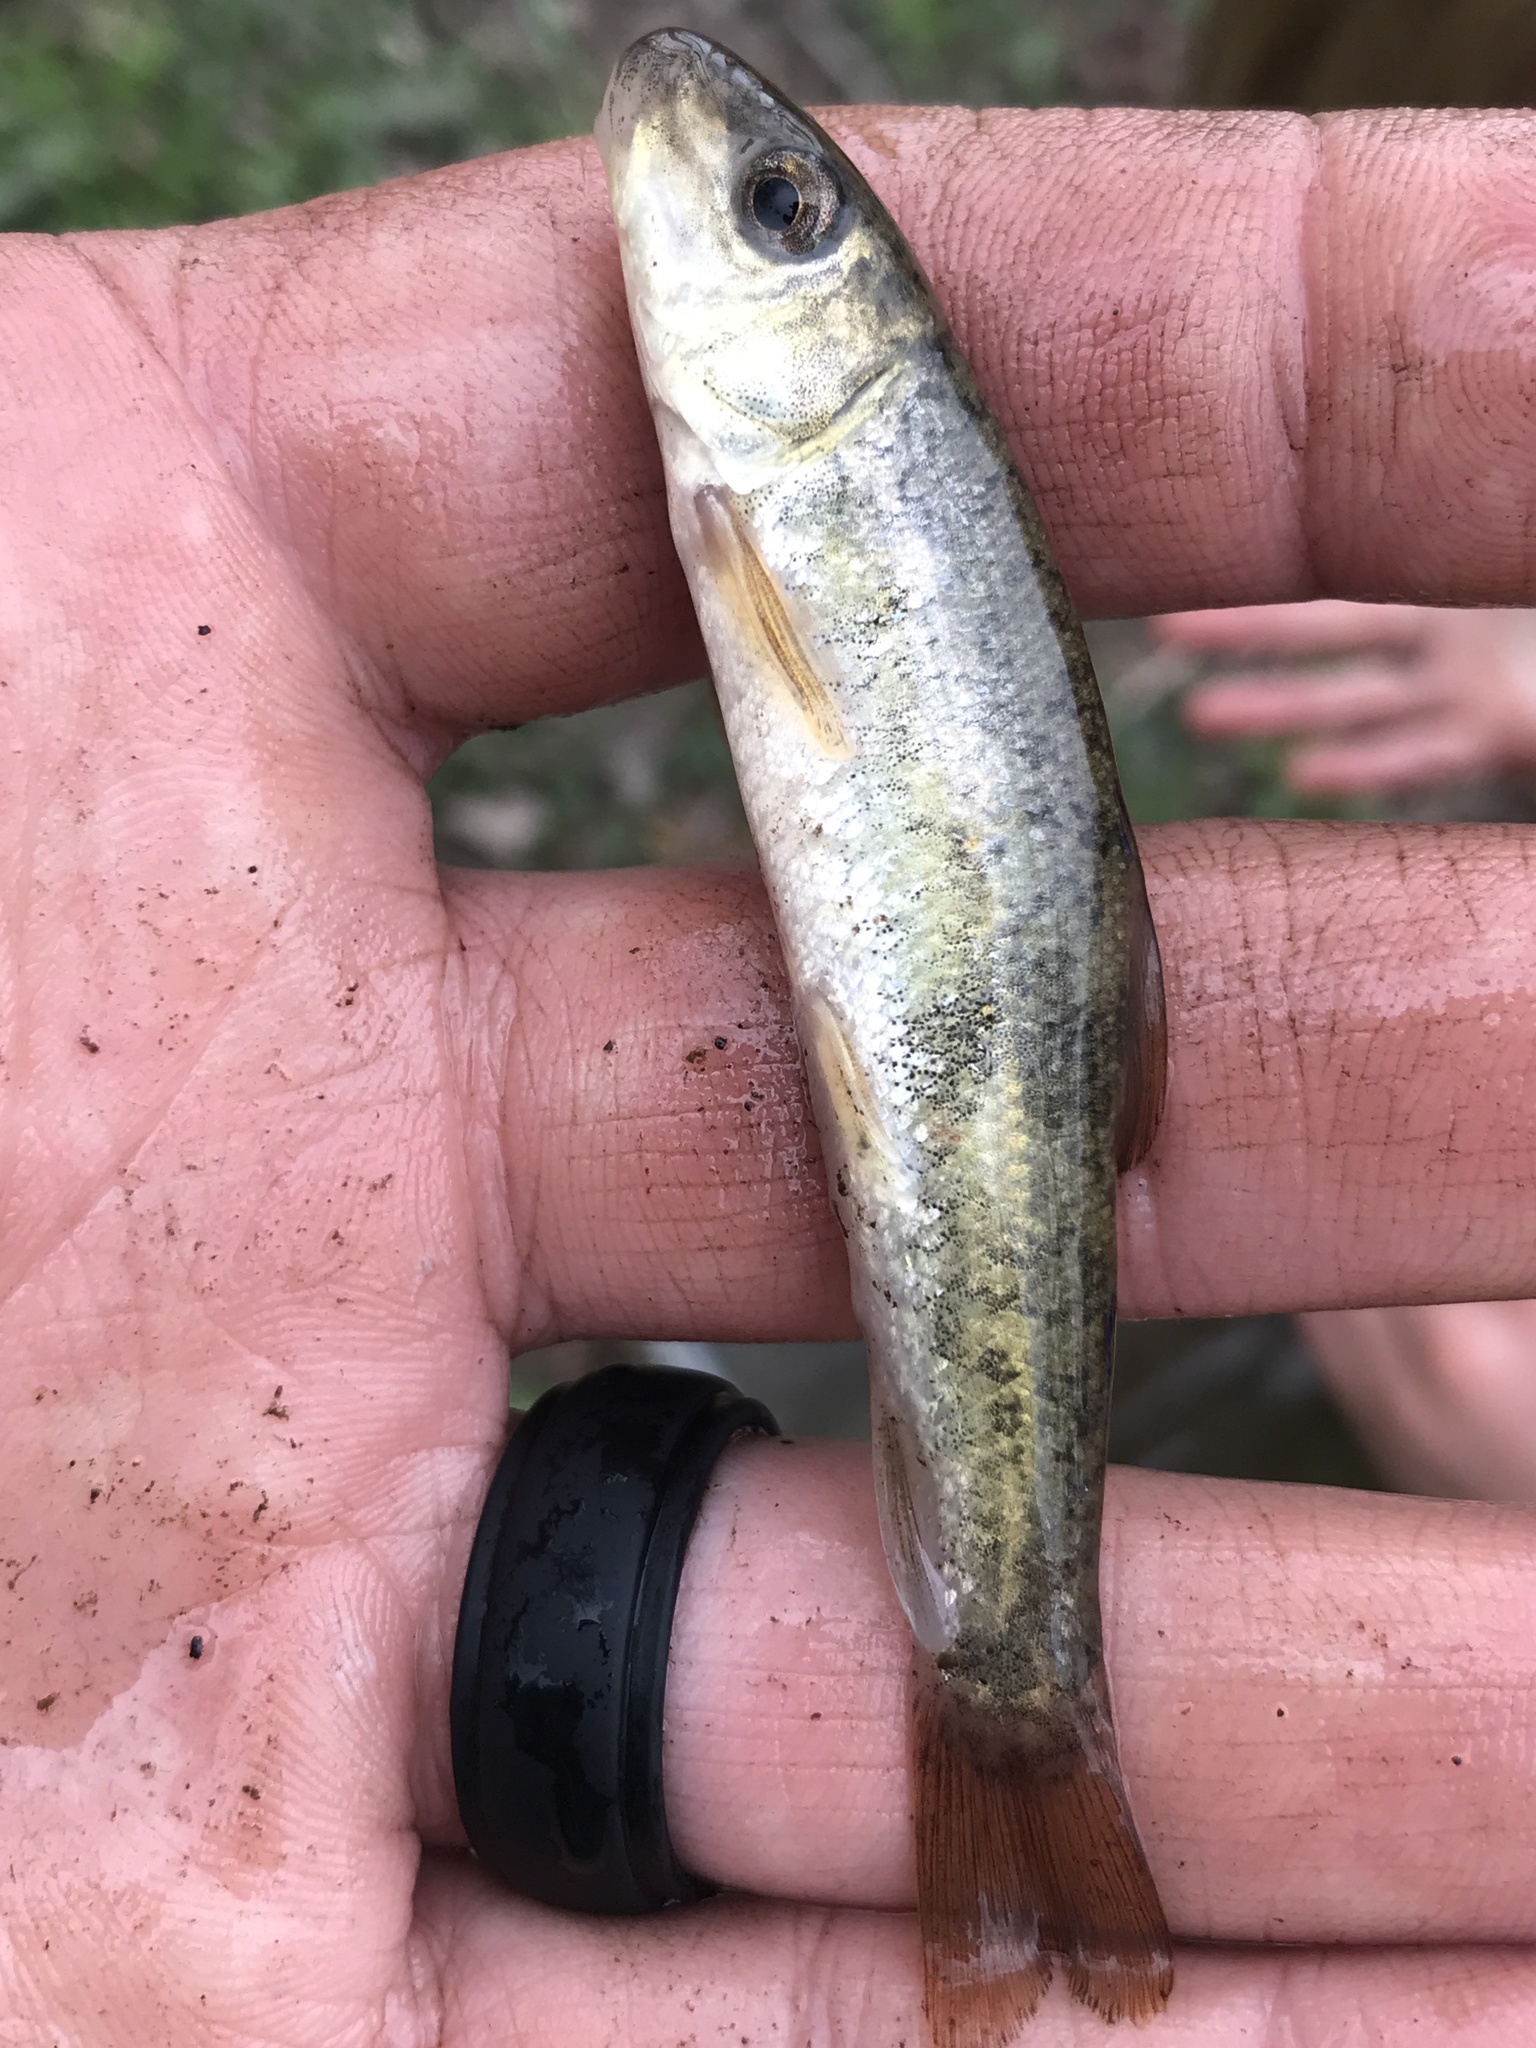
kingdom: Animalia
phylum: Chordata
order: Cypriniformes
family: Catostomidae
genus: Catostomus
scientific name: Catostomus commersonii
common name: White sucker
